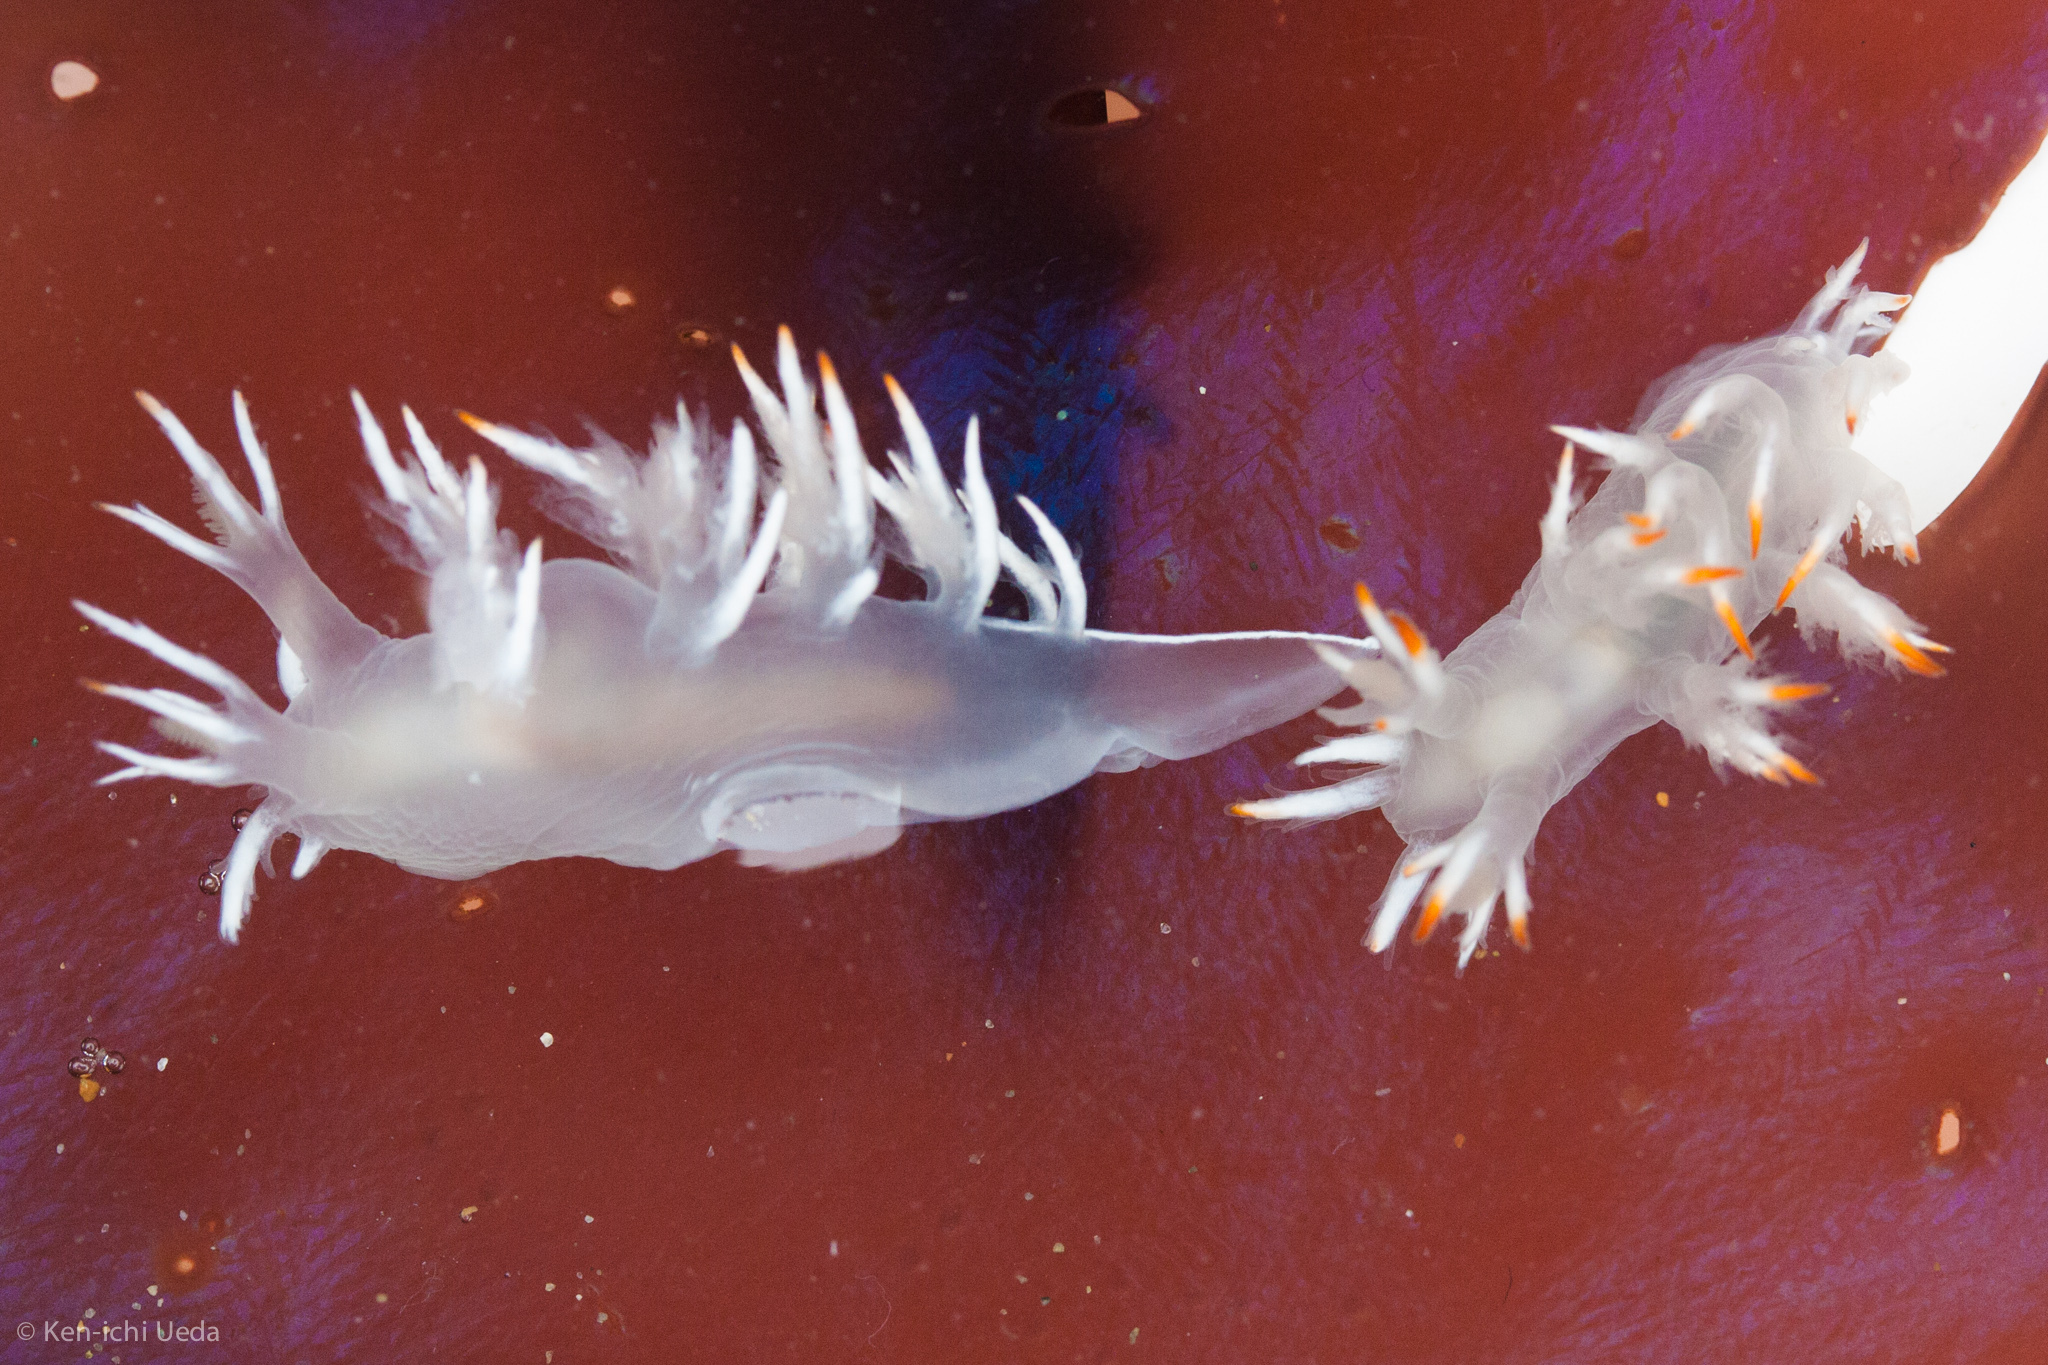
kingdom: Animalia
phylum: Mollusca
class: Gastropoda
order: Nudibranchia
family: Dendronotidae
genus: Dendronotus
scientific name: Dendronotus albus
